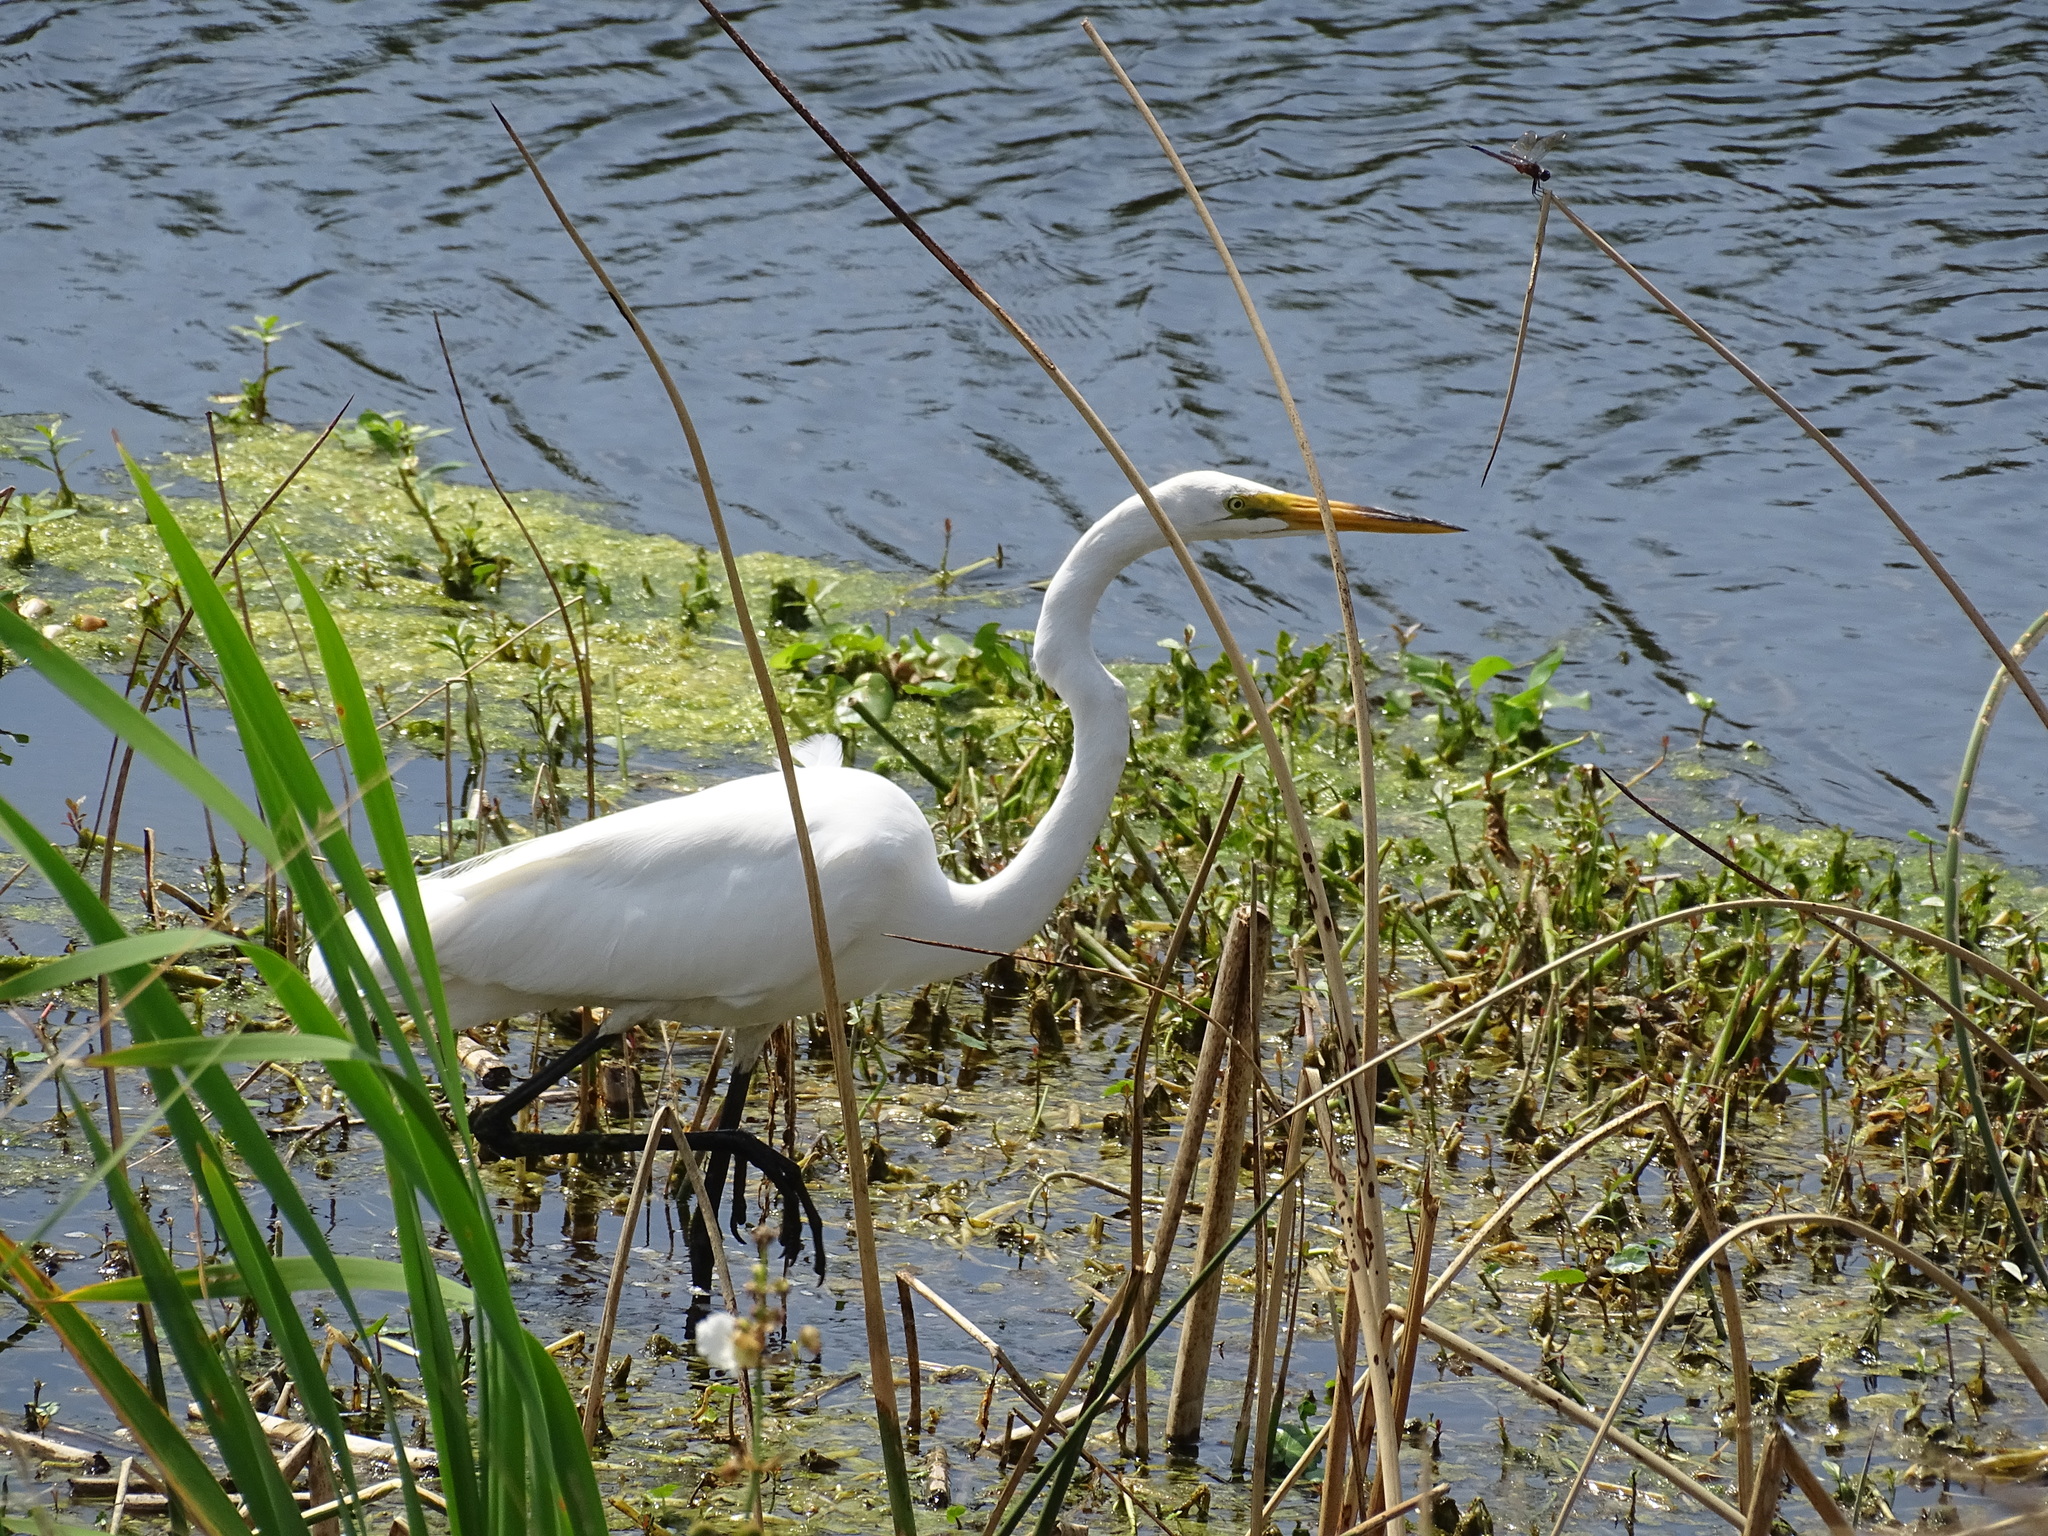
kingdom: Animalia
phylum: Chordata
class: Aves
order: Pelecaniformes
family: Ardeidae
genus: Ardea
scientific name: Ardea alba
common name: Great egret
